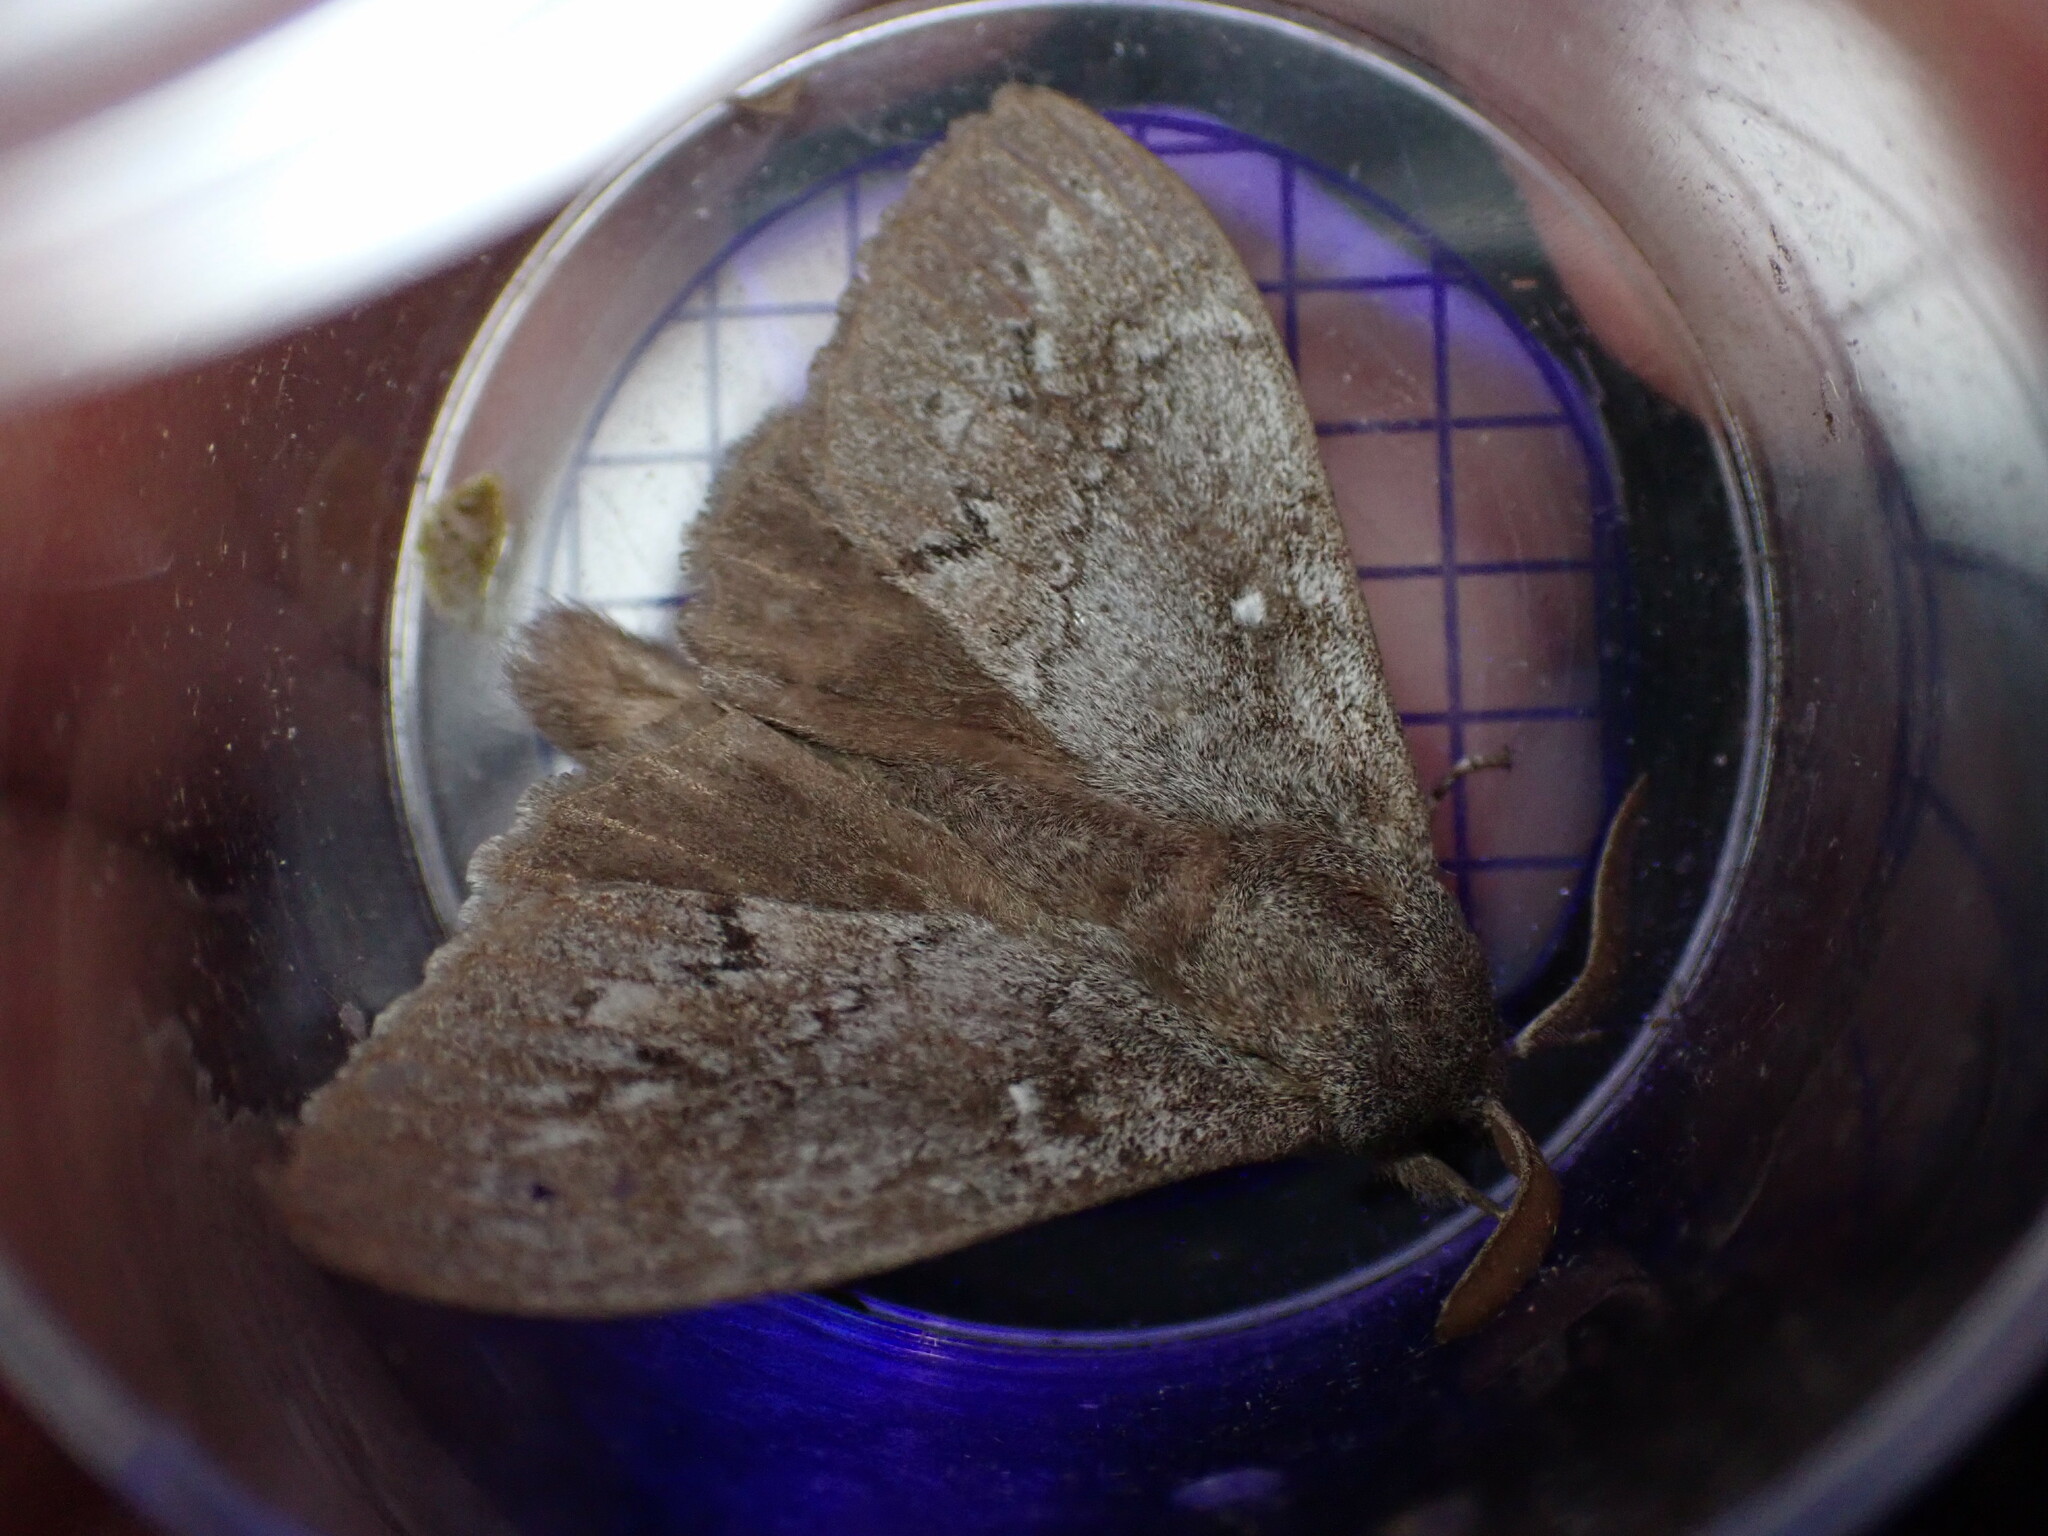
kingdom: Animalia
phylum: Arthropoda
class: Insecta
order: Lepidoptera
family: Lasiocampidae
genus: Dendrolimus
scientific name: Dendrolimus pini
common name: Pine-tree lappet
